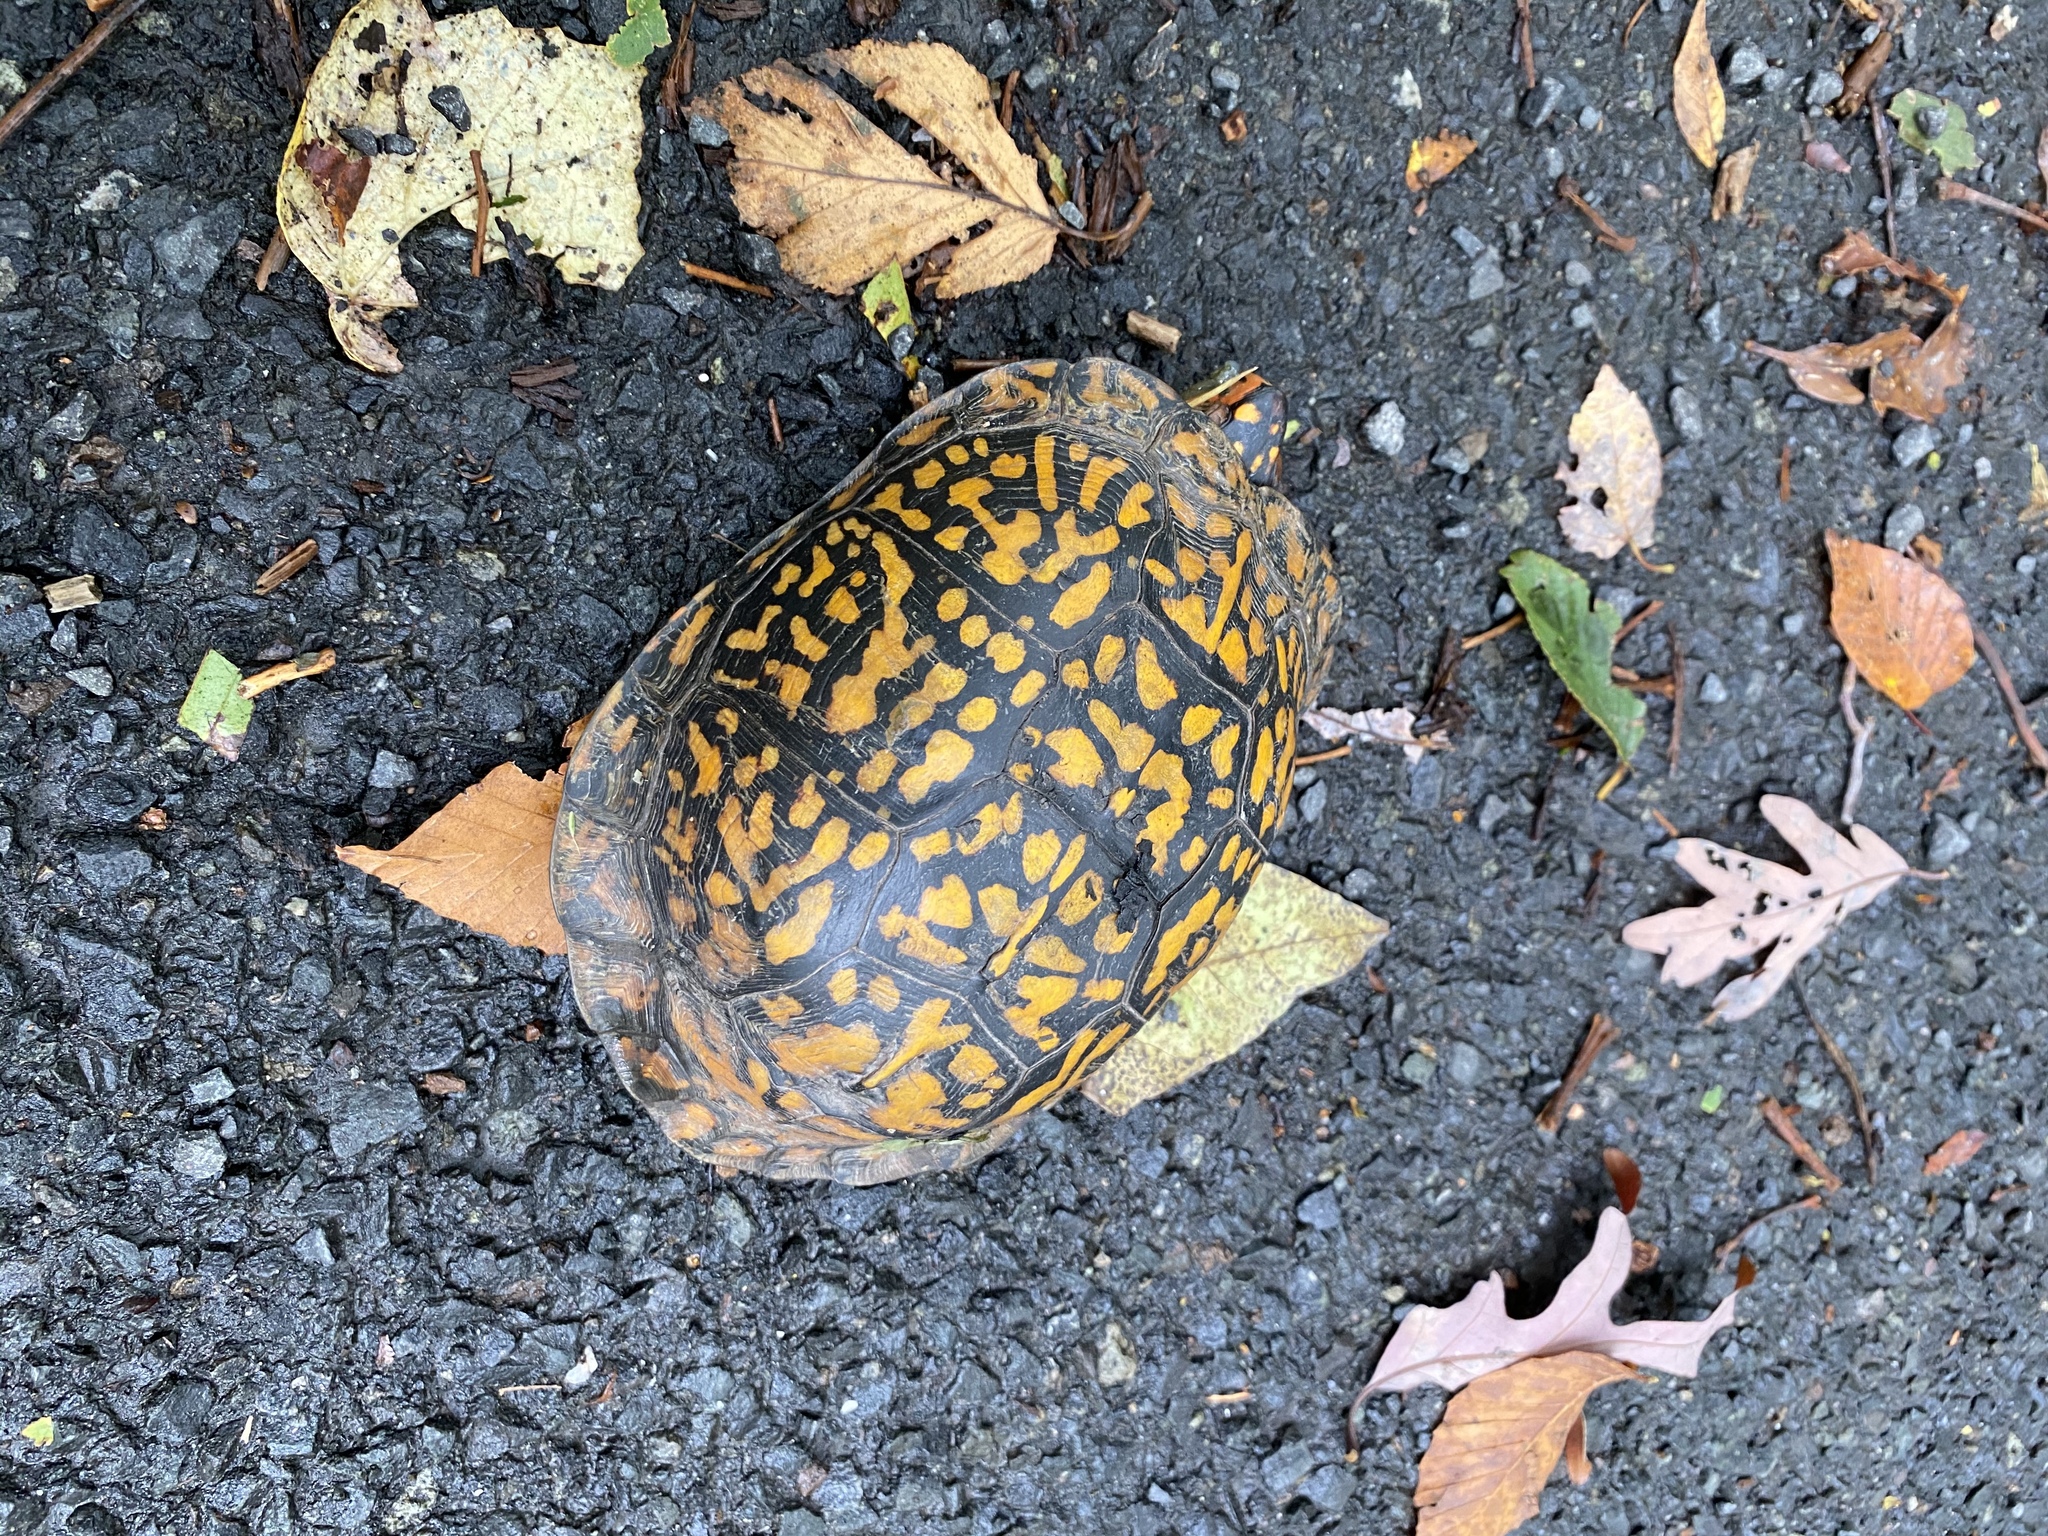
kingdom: Animalia
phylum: Chordata
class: Testudines
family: Emydidae
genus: Terrapene
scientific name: Terrapene carolina
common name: Common box turtle
